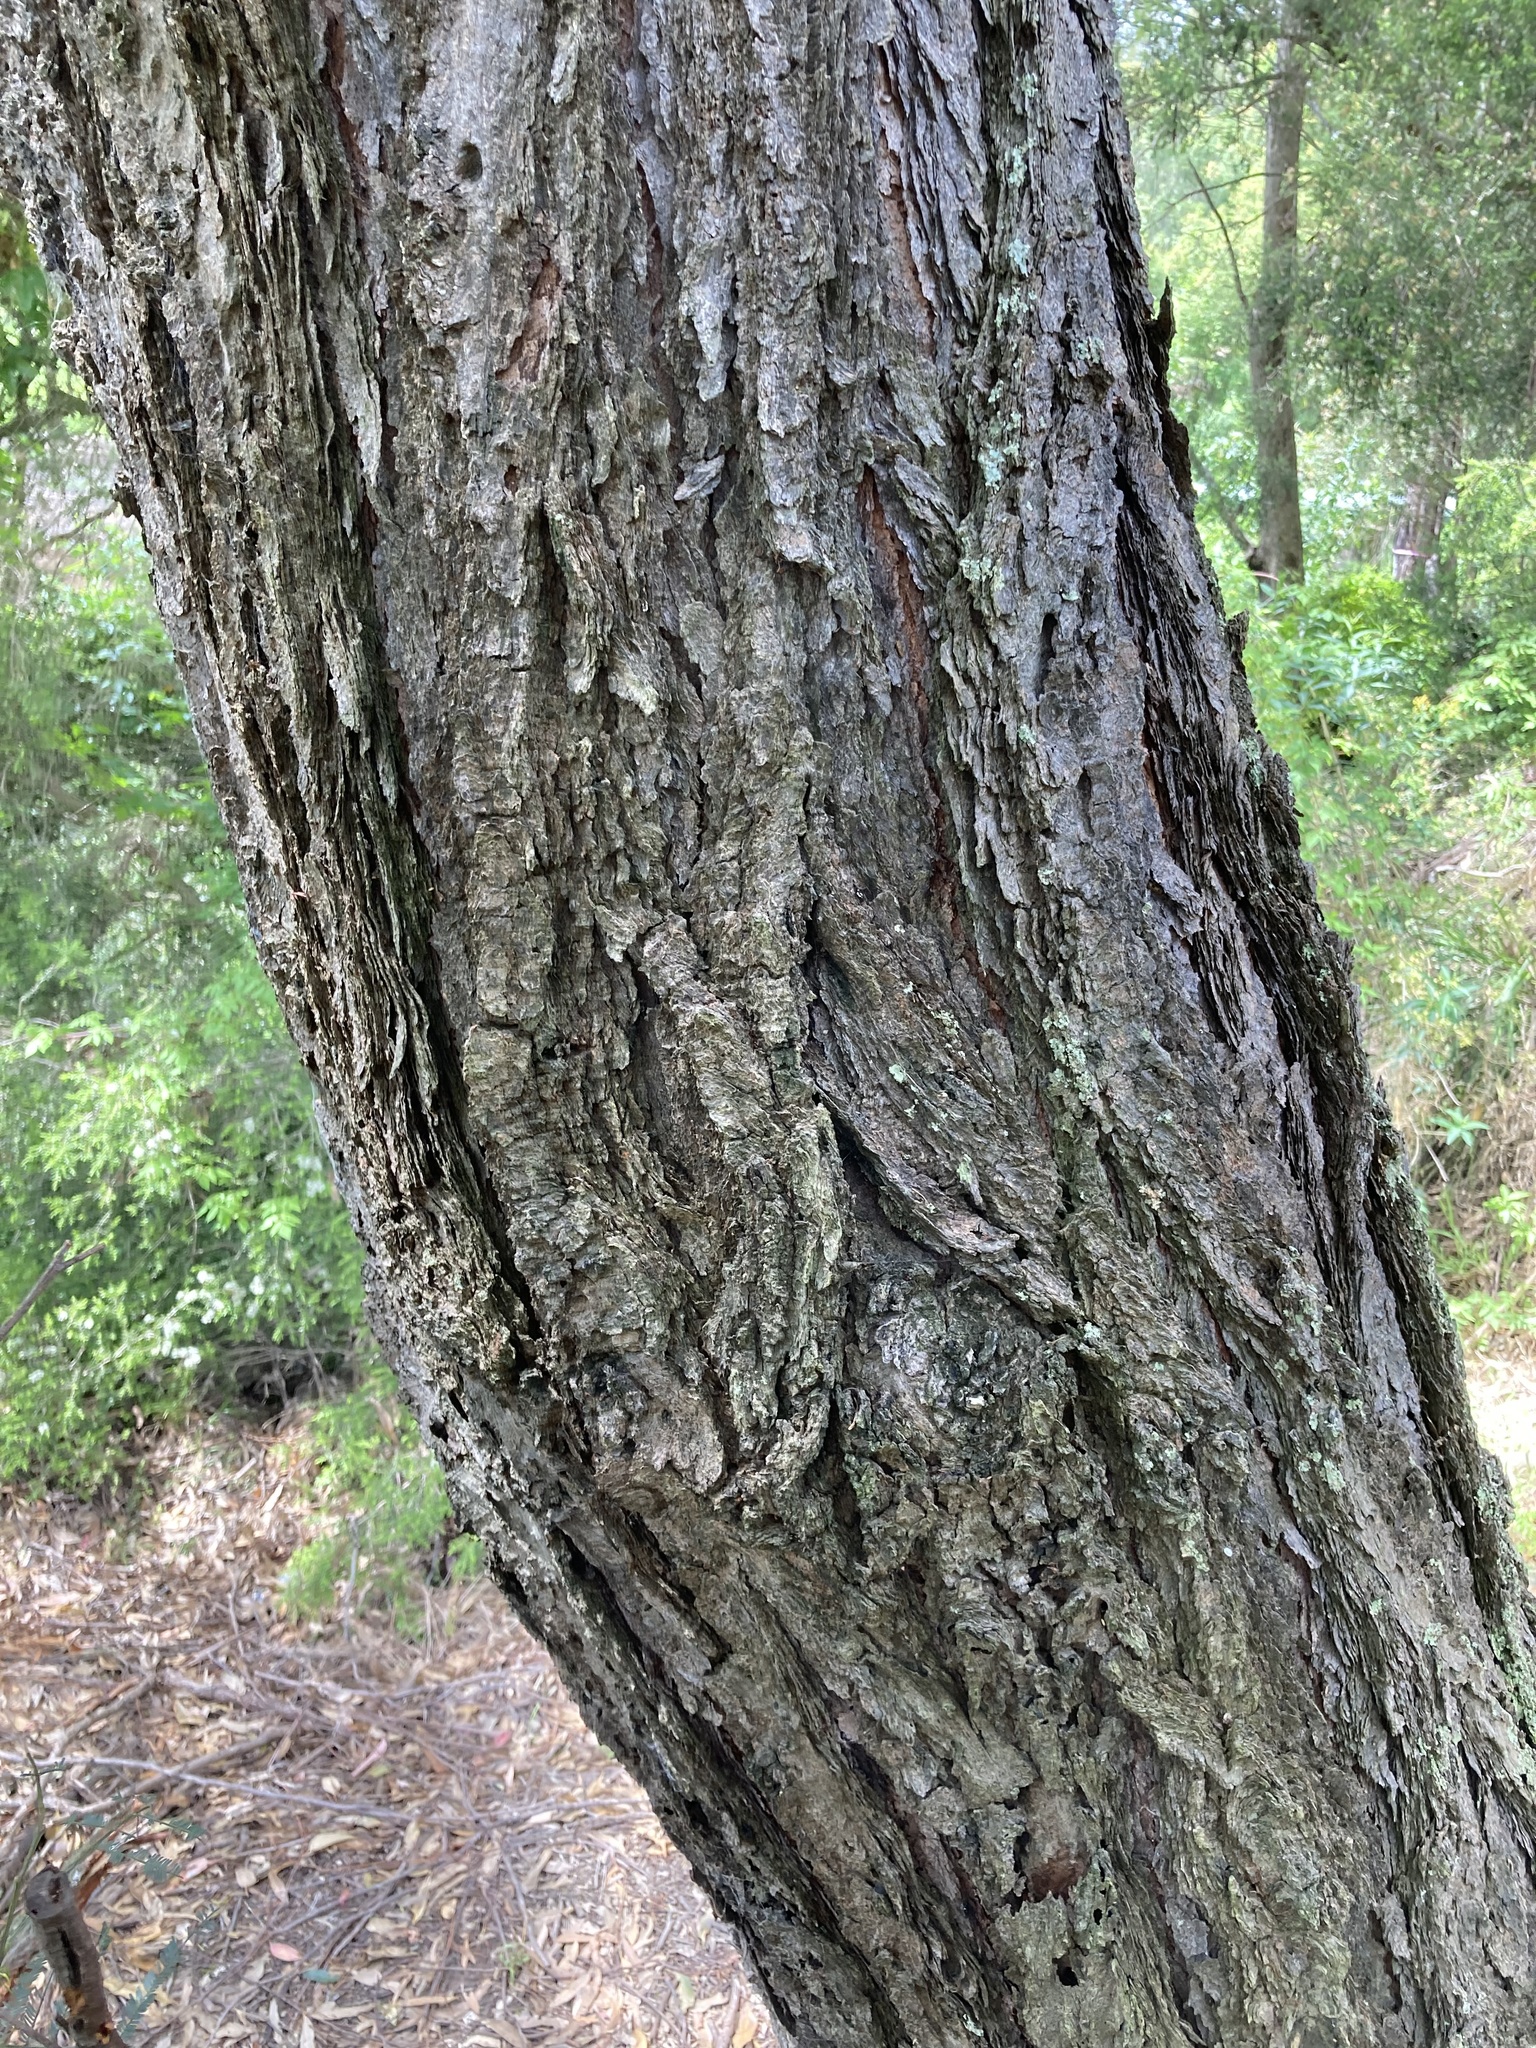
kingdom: Plantae
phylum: Tracheophyta
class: Magnoliopsida
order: Myrtales
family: Myrtaceae
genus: Eucalyptus
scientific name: Eucalyptus fibrosa
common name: Red ironbark
